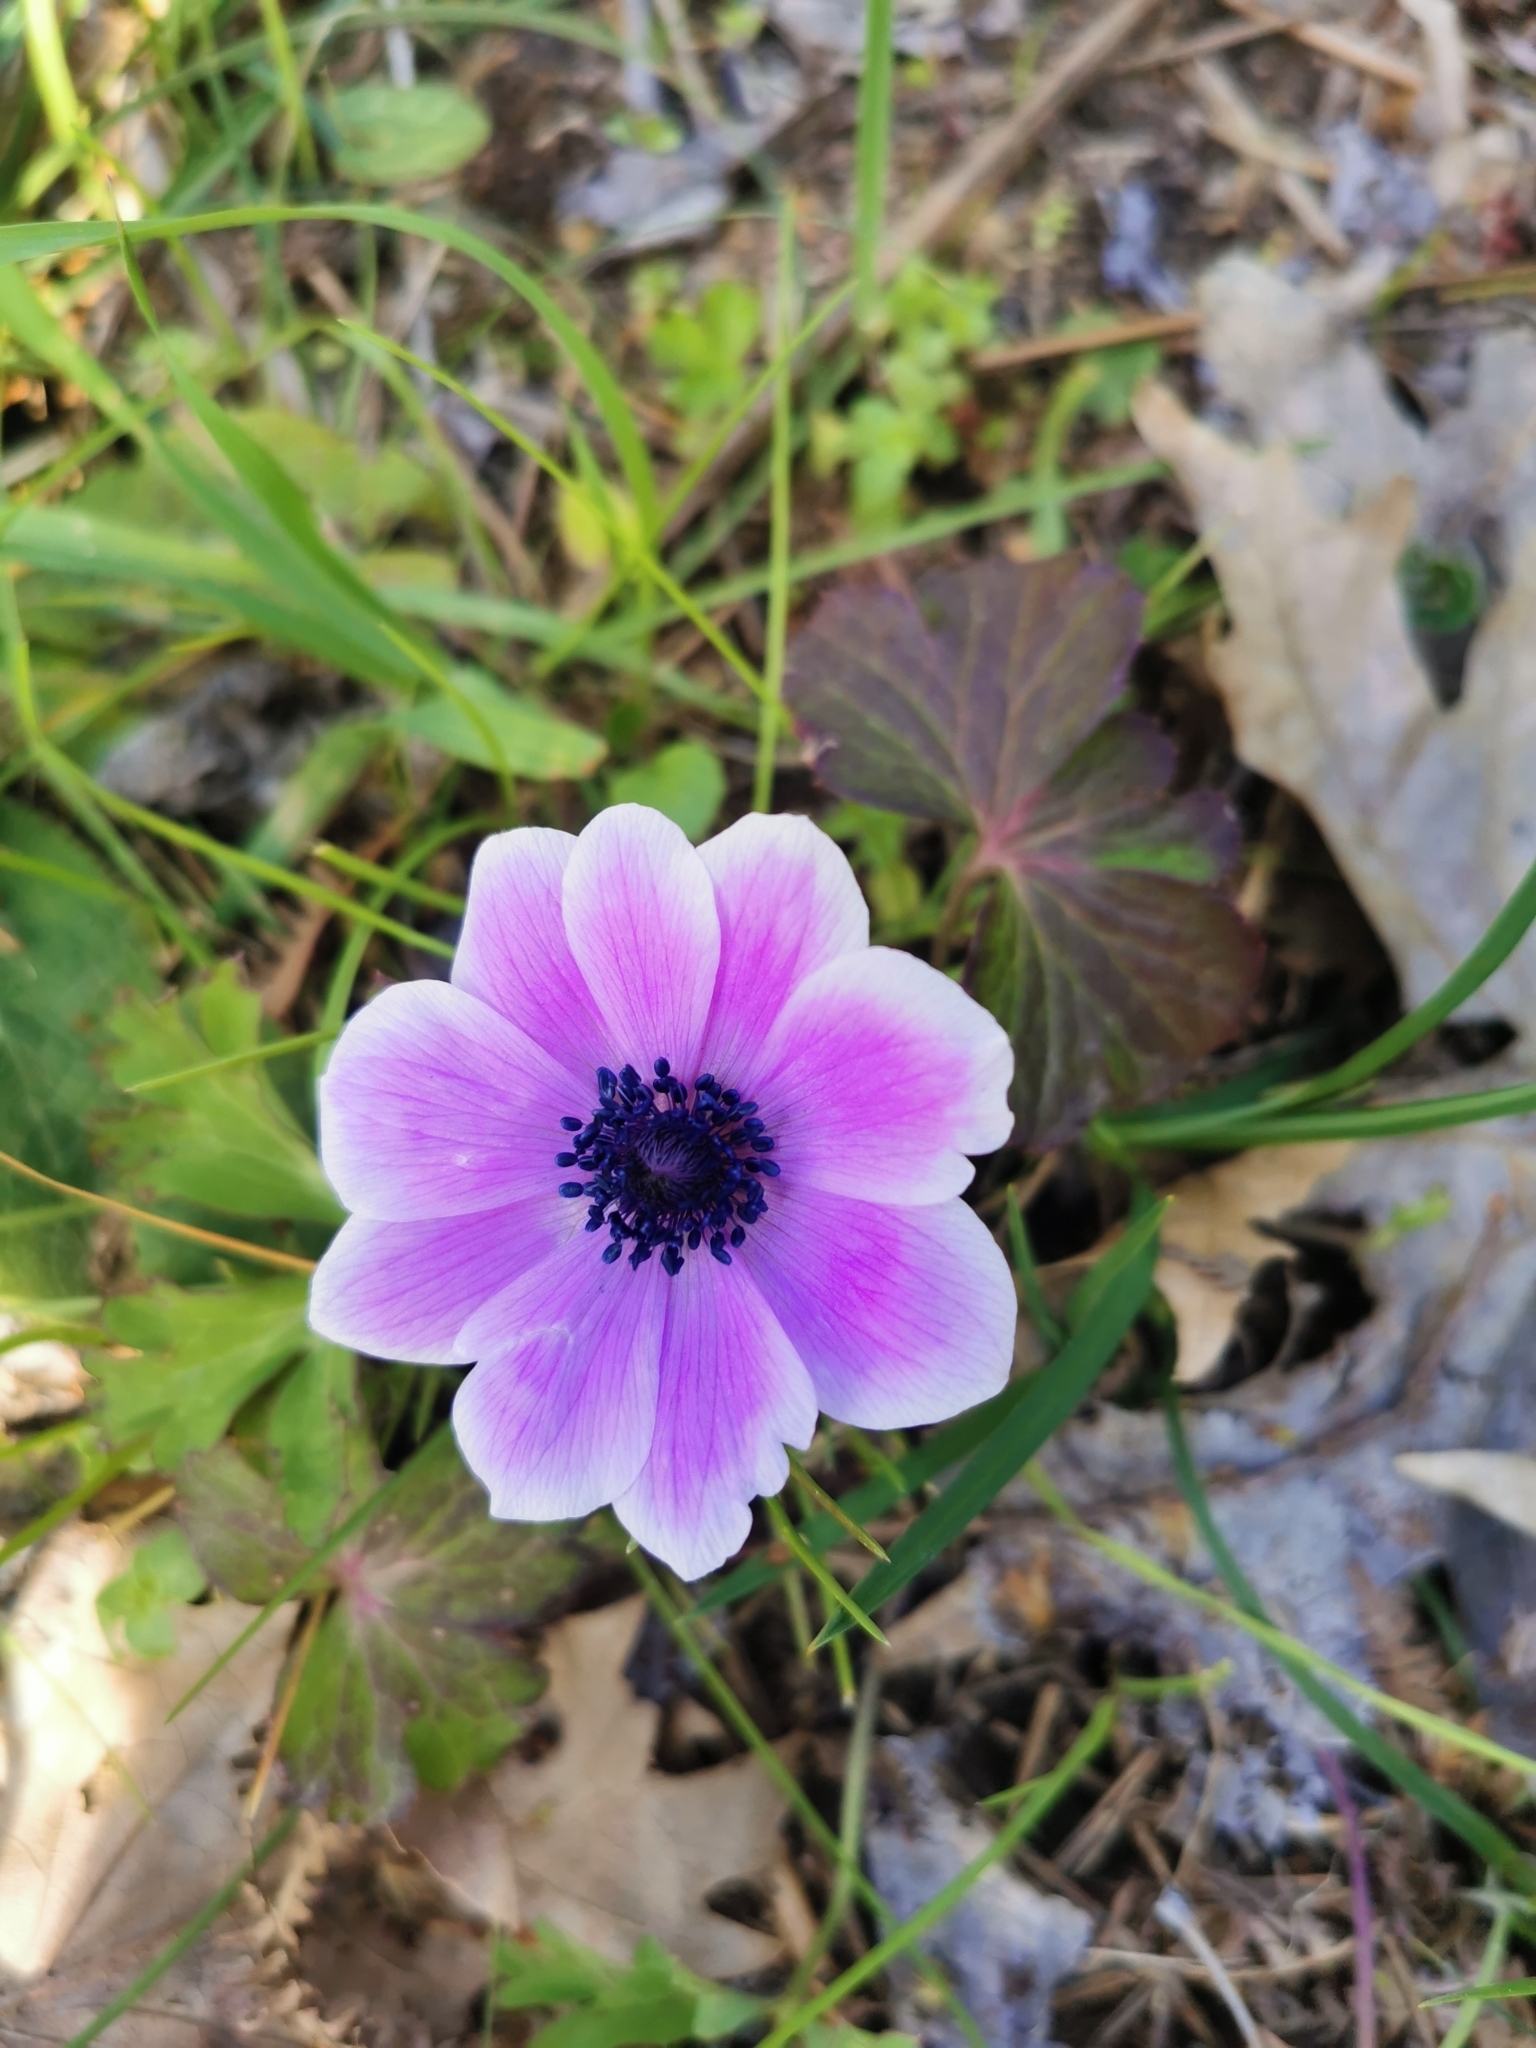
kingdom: Plantae
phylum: Tracheophyta
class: Magnoliopsida
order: Ranunculales
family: Ranunculaceae
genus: Anemone
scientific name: Anemone pavonina
